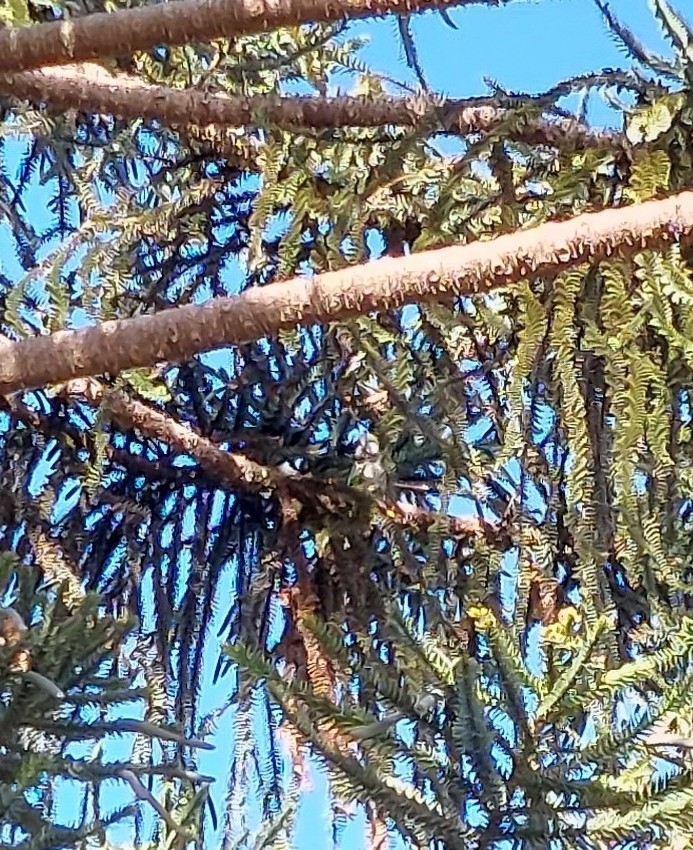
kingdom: Animalia
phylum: Chordata
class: Aves
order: Psittaciformes
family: Psittacidae
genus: Myiopsitta
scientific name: Myiopsitta monachus
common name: Monk parakeet
